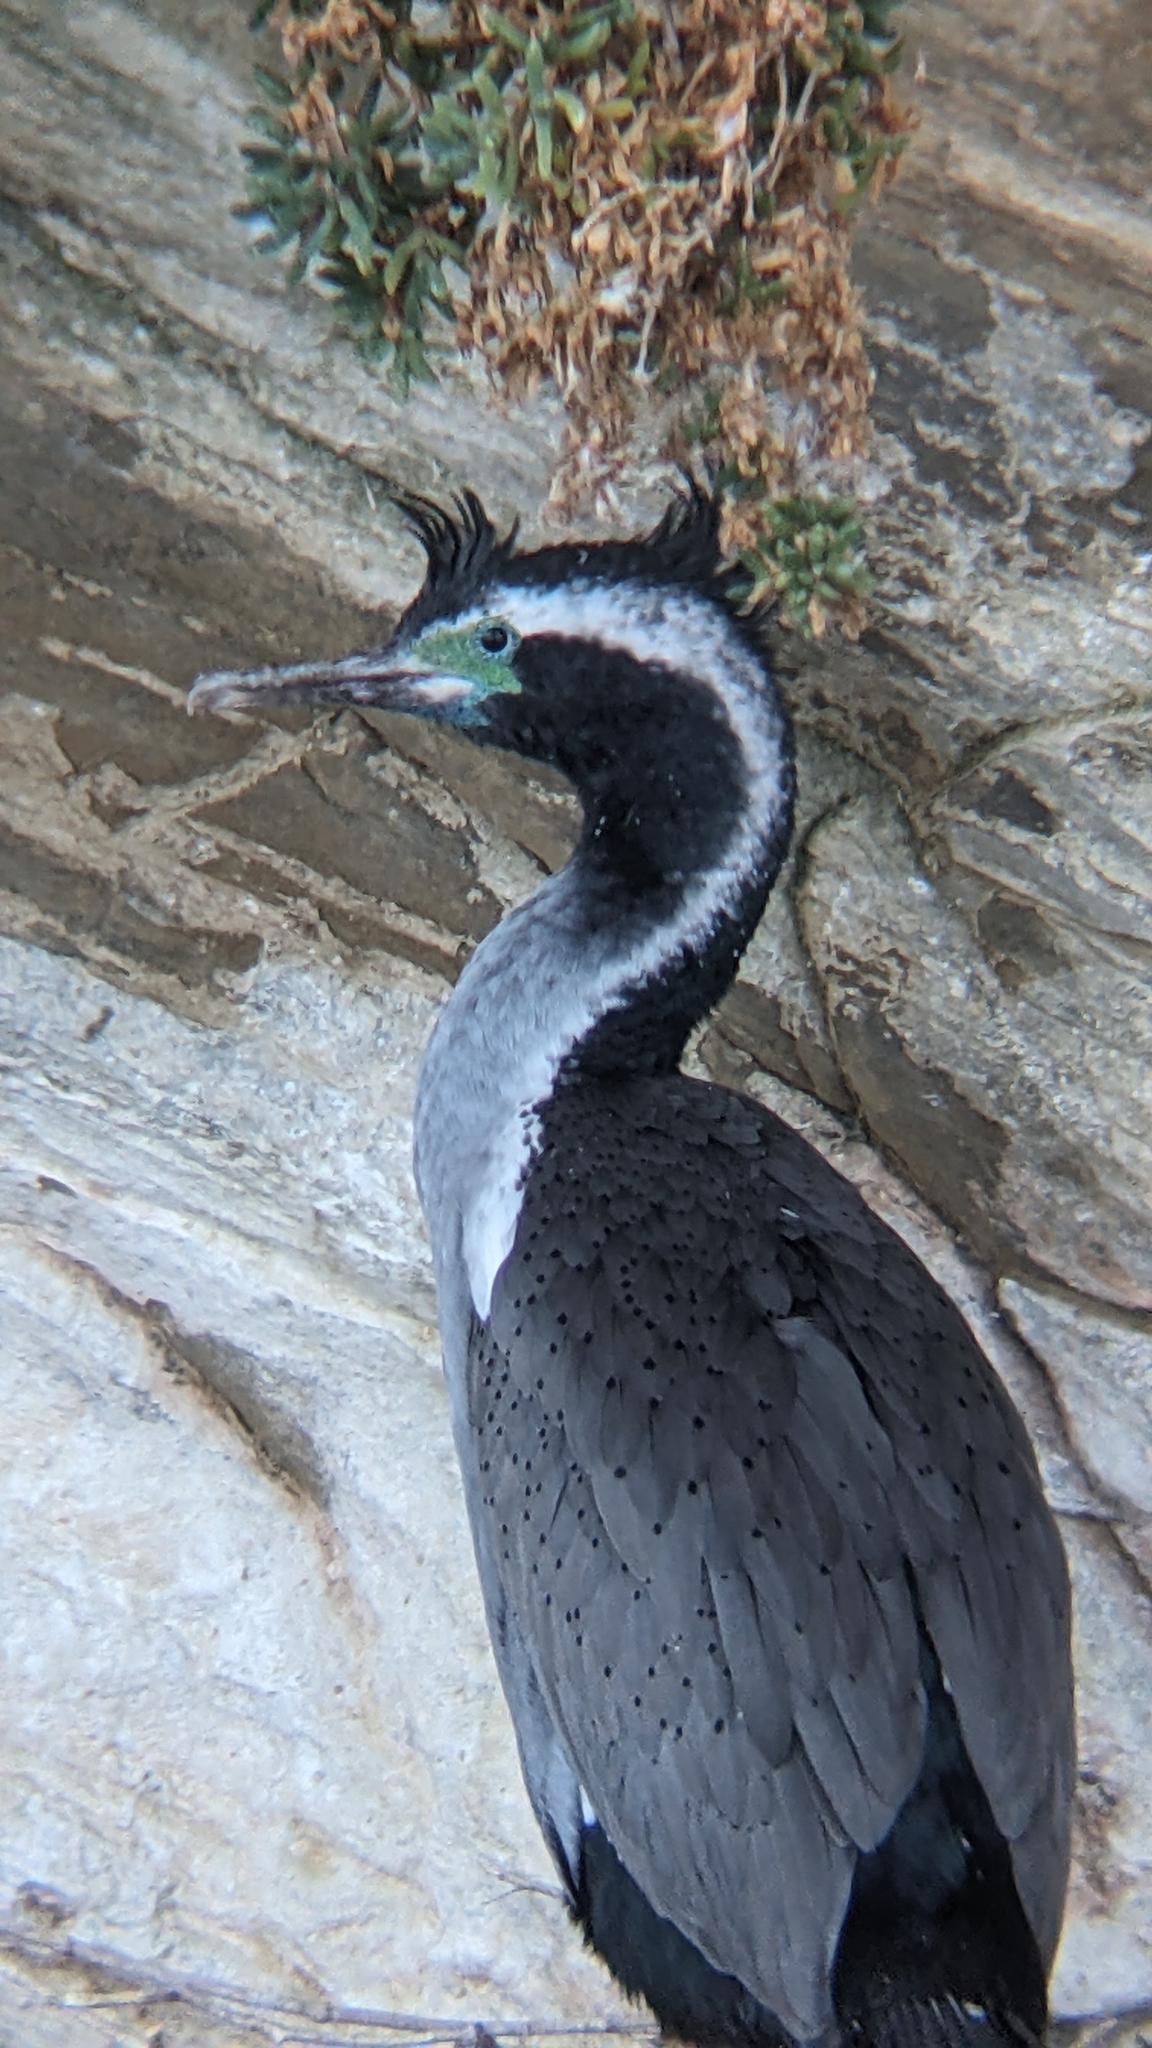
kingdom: Animalia
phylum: Chordata
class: Aves
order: Suliformes
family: Phalacrocoracidae
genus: Phalacrocorax
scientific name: Phalacrocorax punctatus
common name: Spotted shag
